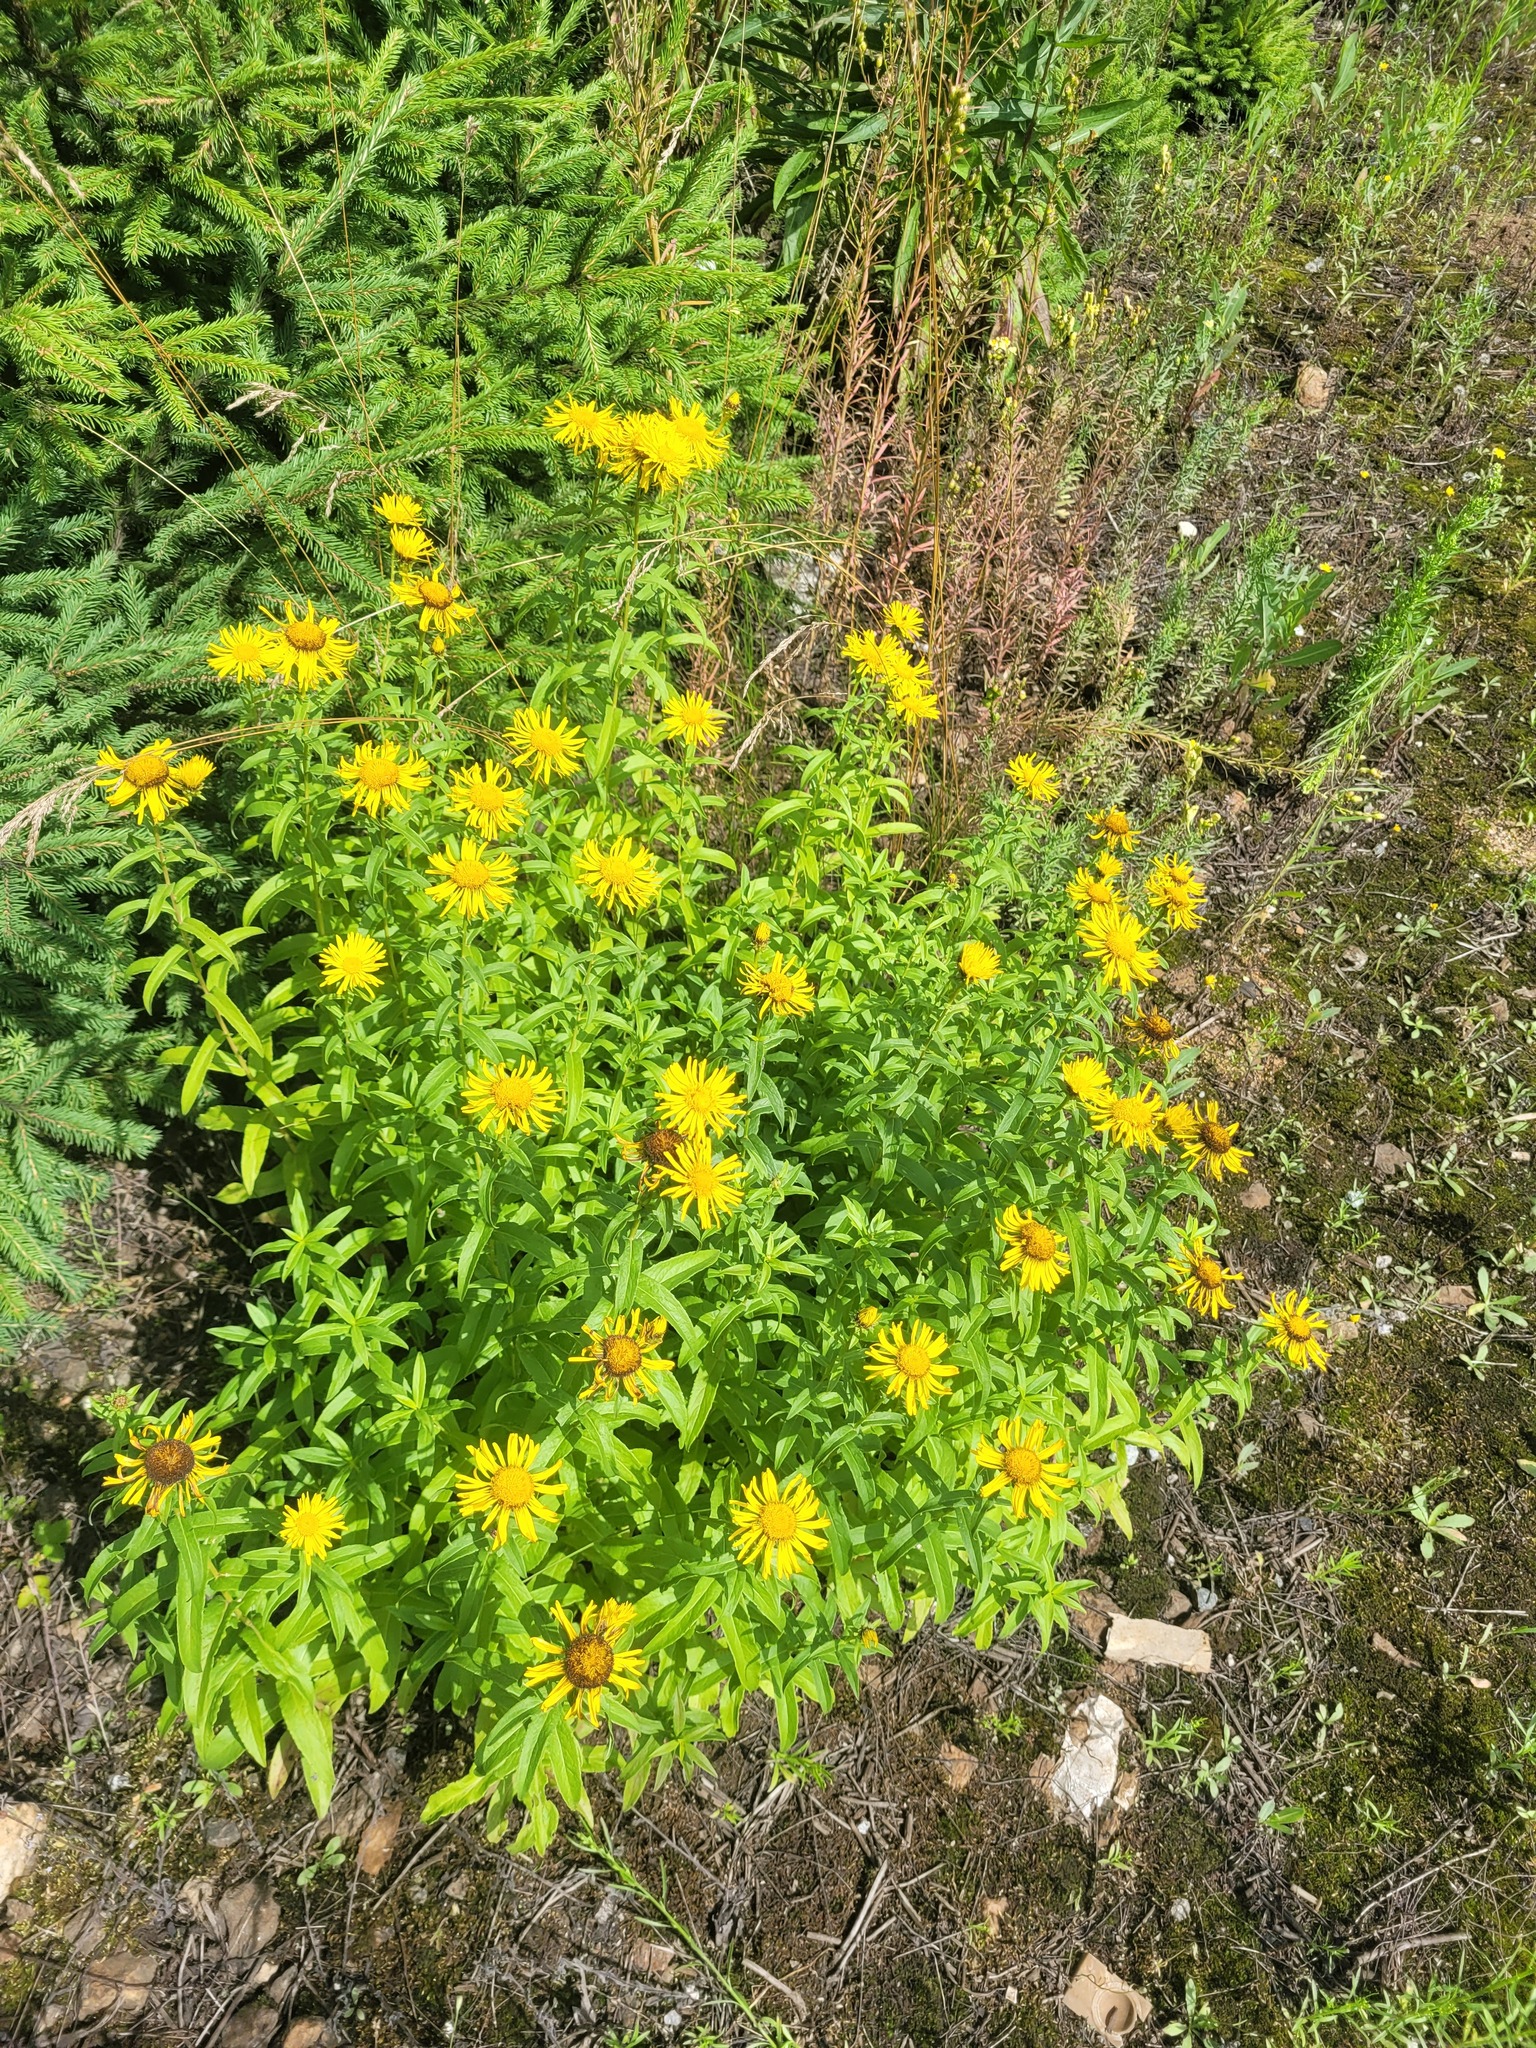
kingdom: Plantae
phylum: Tracheophyta
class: Magnoliopsida
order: Asterales
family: Asteraceae
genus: Pentanema
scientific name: Pentanema salicinum
